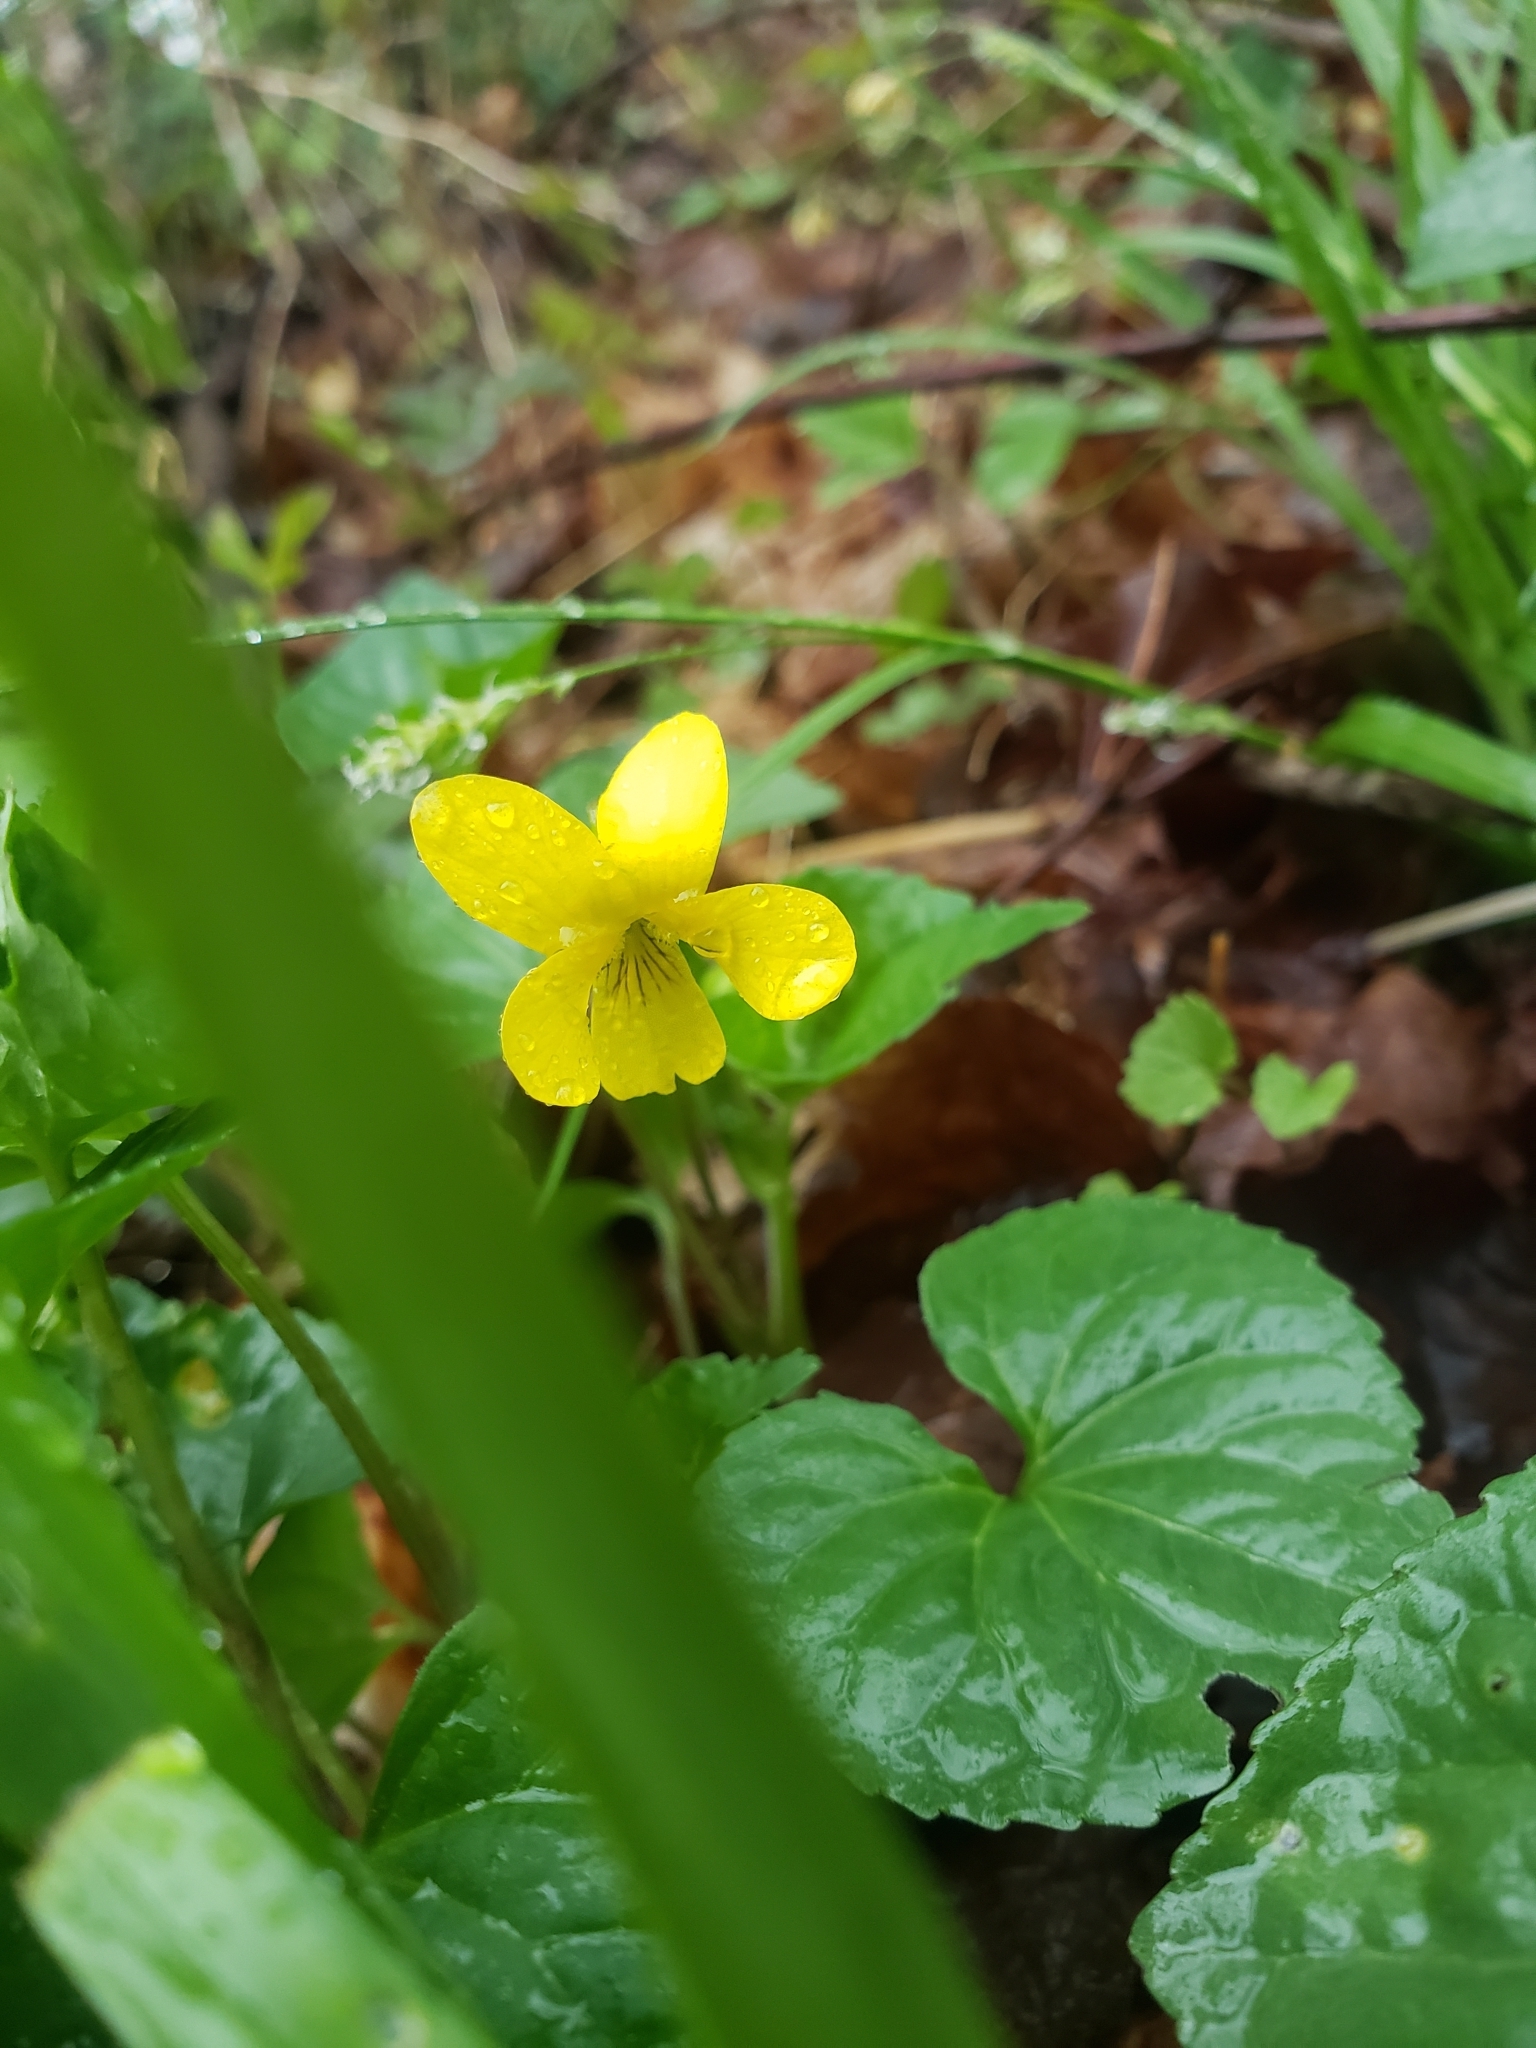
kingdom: Plantae
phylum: Tracheophyta
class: Magnoliopsida
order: Malpighiales
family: Violaceae
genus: Viola
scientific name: Viola eriocarpa
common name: Smooth yellow violet
